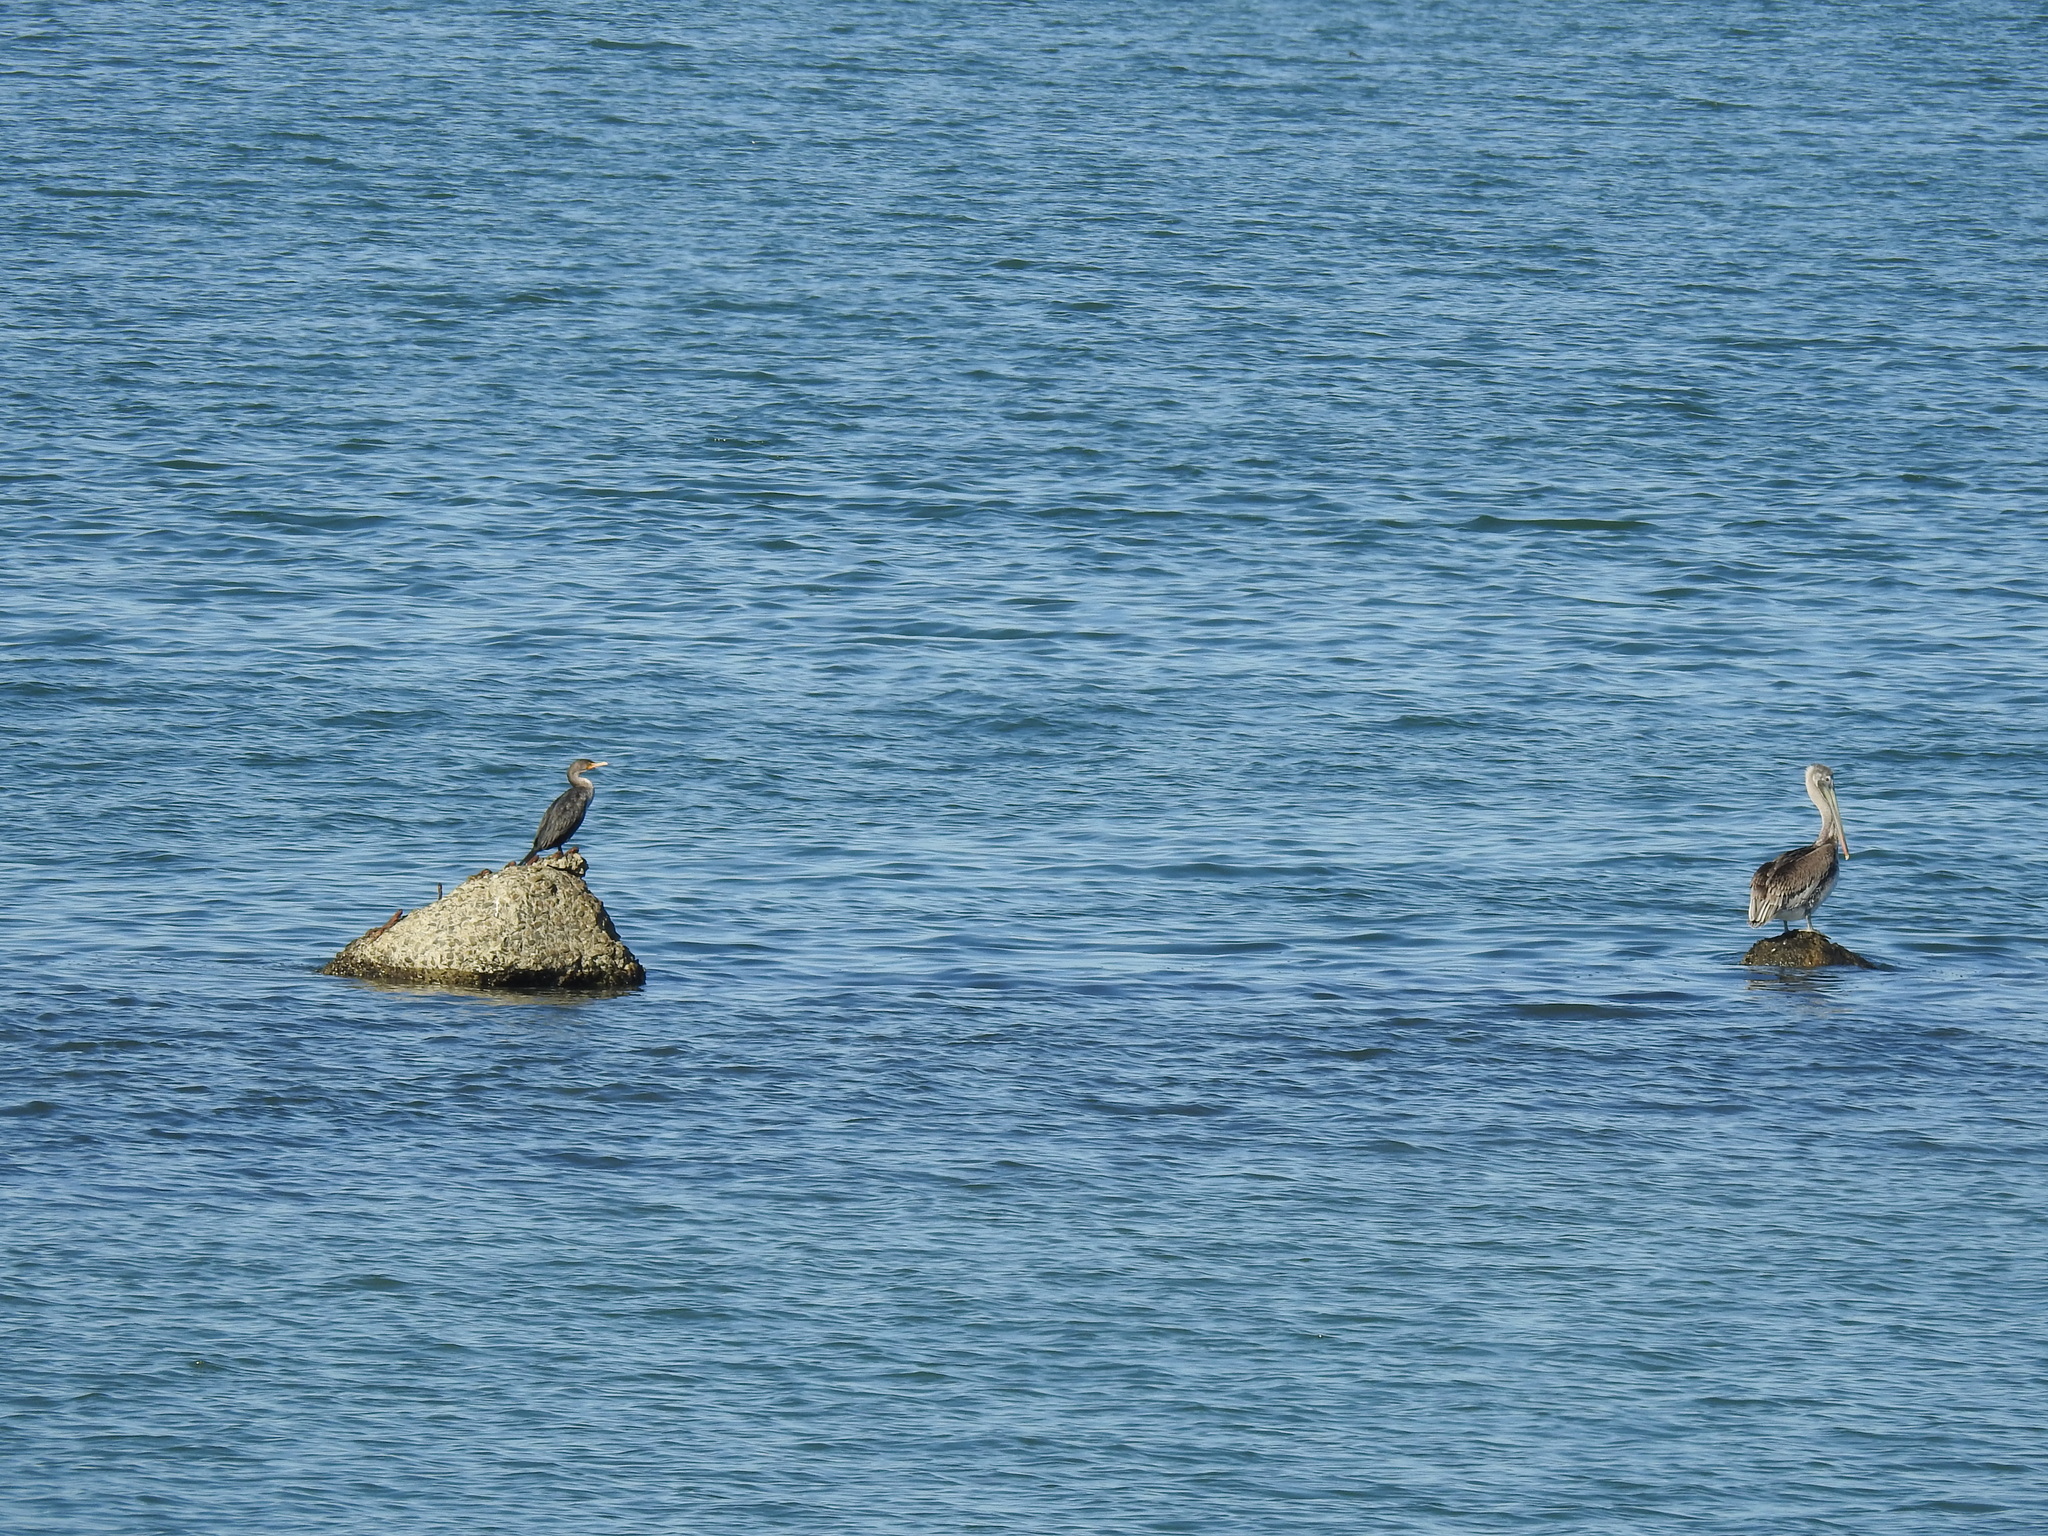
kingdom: Animalia
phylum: Chordata
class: Aves
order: Suliformes
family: Phalacrocoracidae
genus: Phalacrocorax
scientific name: Phalacrocorax auritus
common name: Double-crested cormorant
